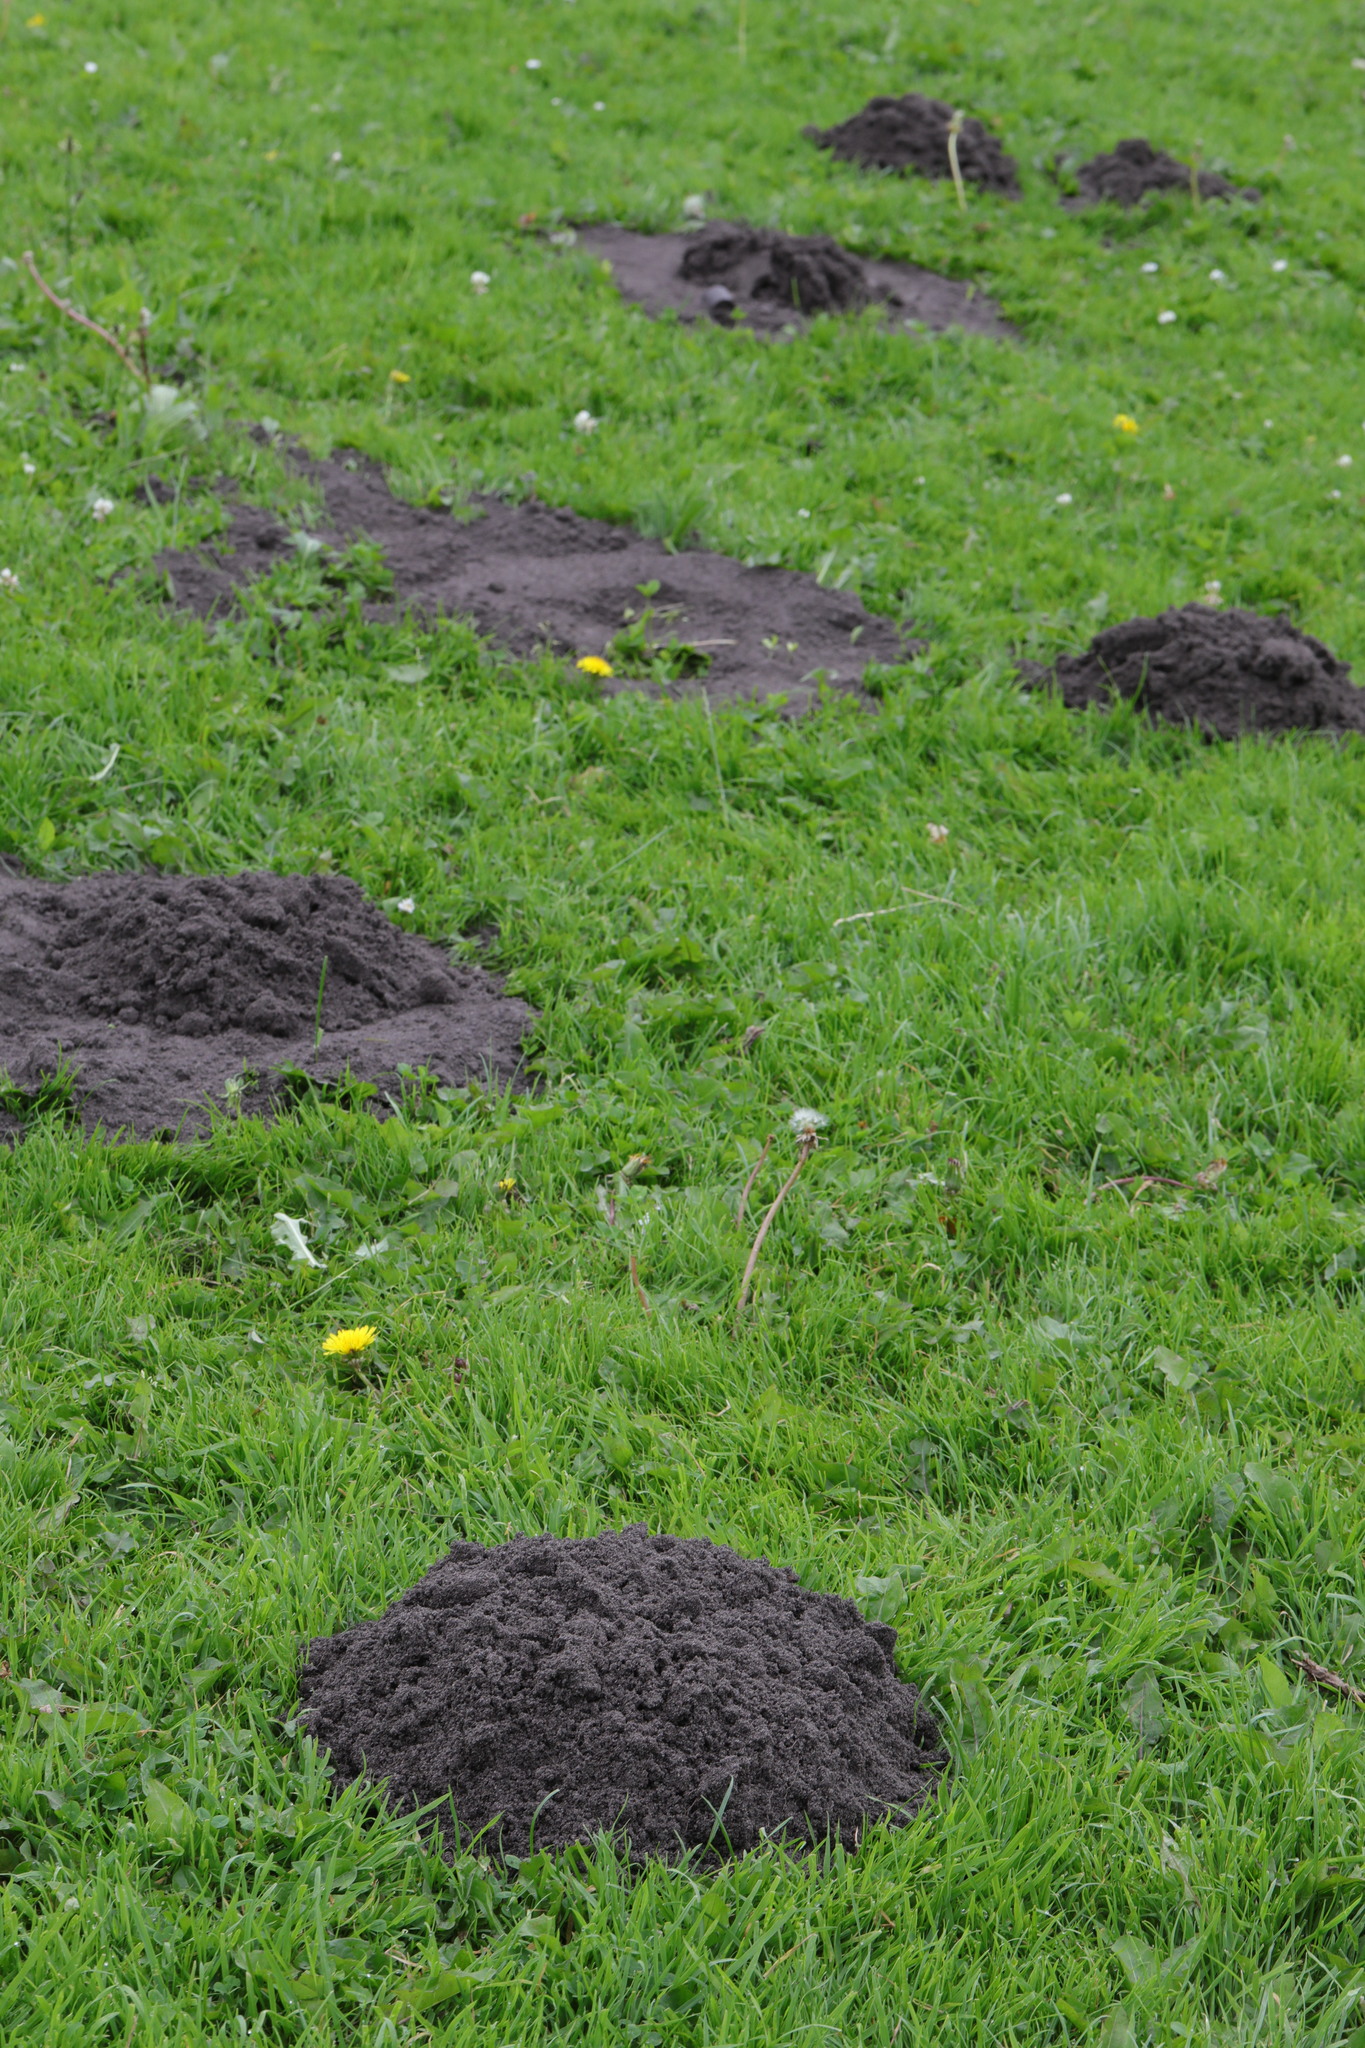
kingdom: Animalia
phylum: Chordata
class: Mammalia
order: Soricomorpha
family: Talpidae
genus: Talpa
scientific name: Talpa europaea
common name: European mole
